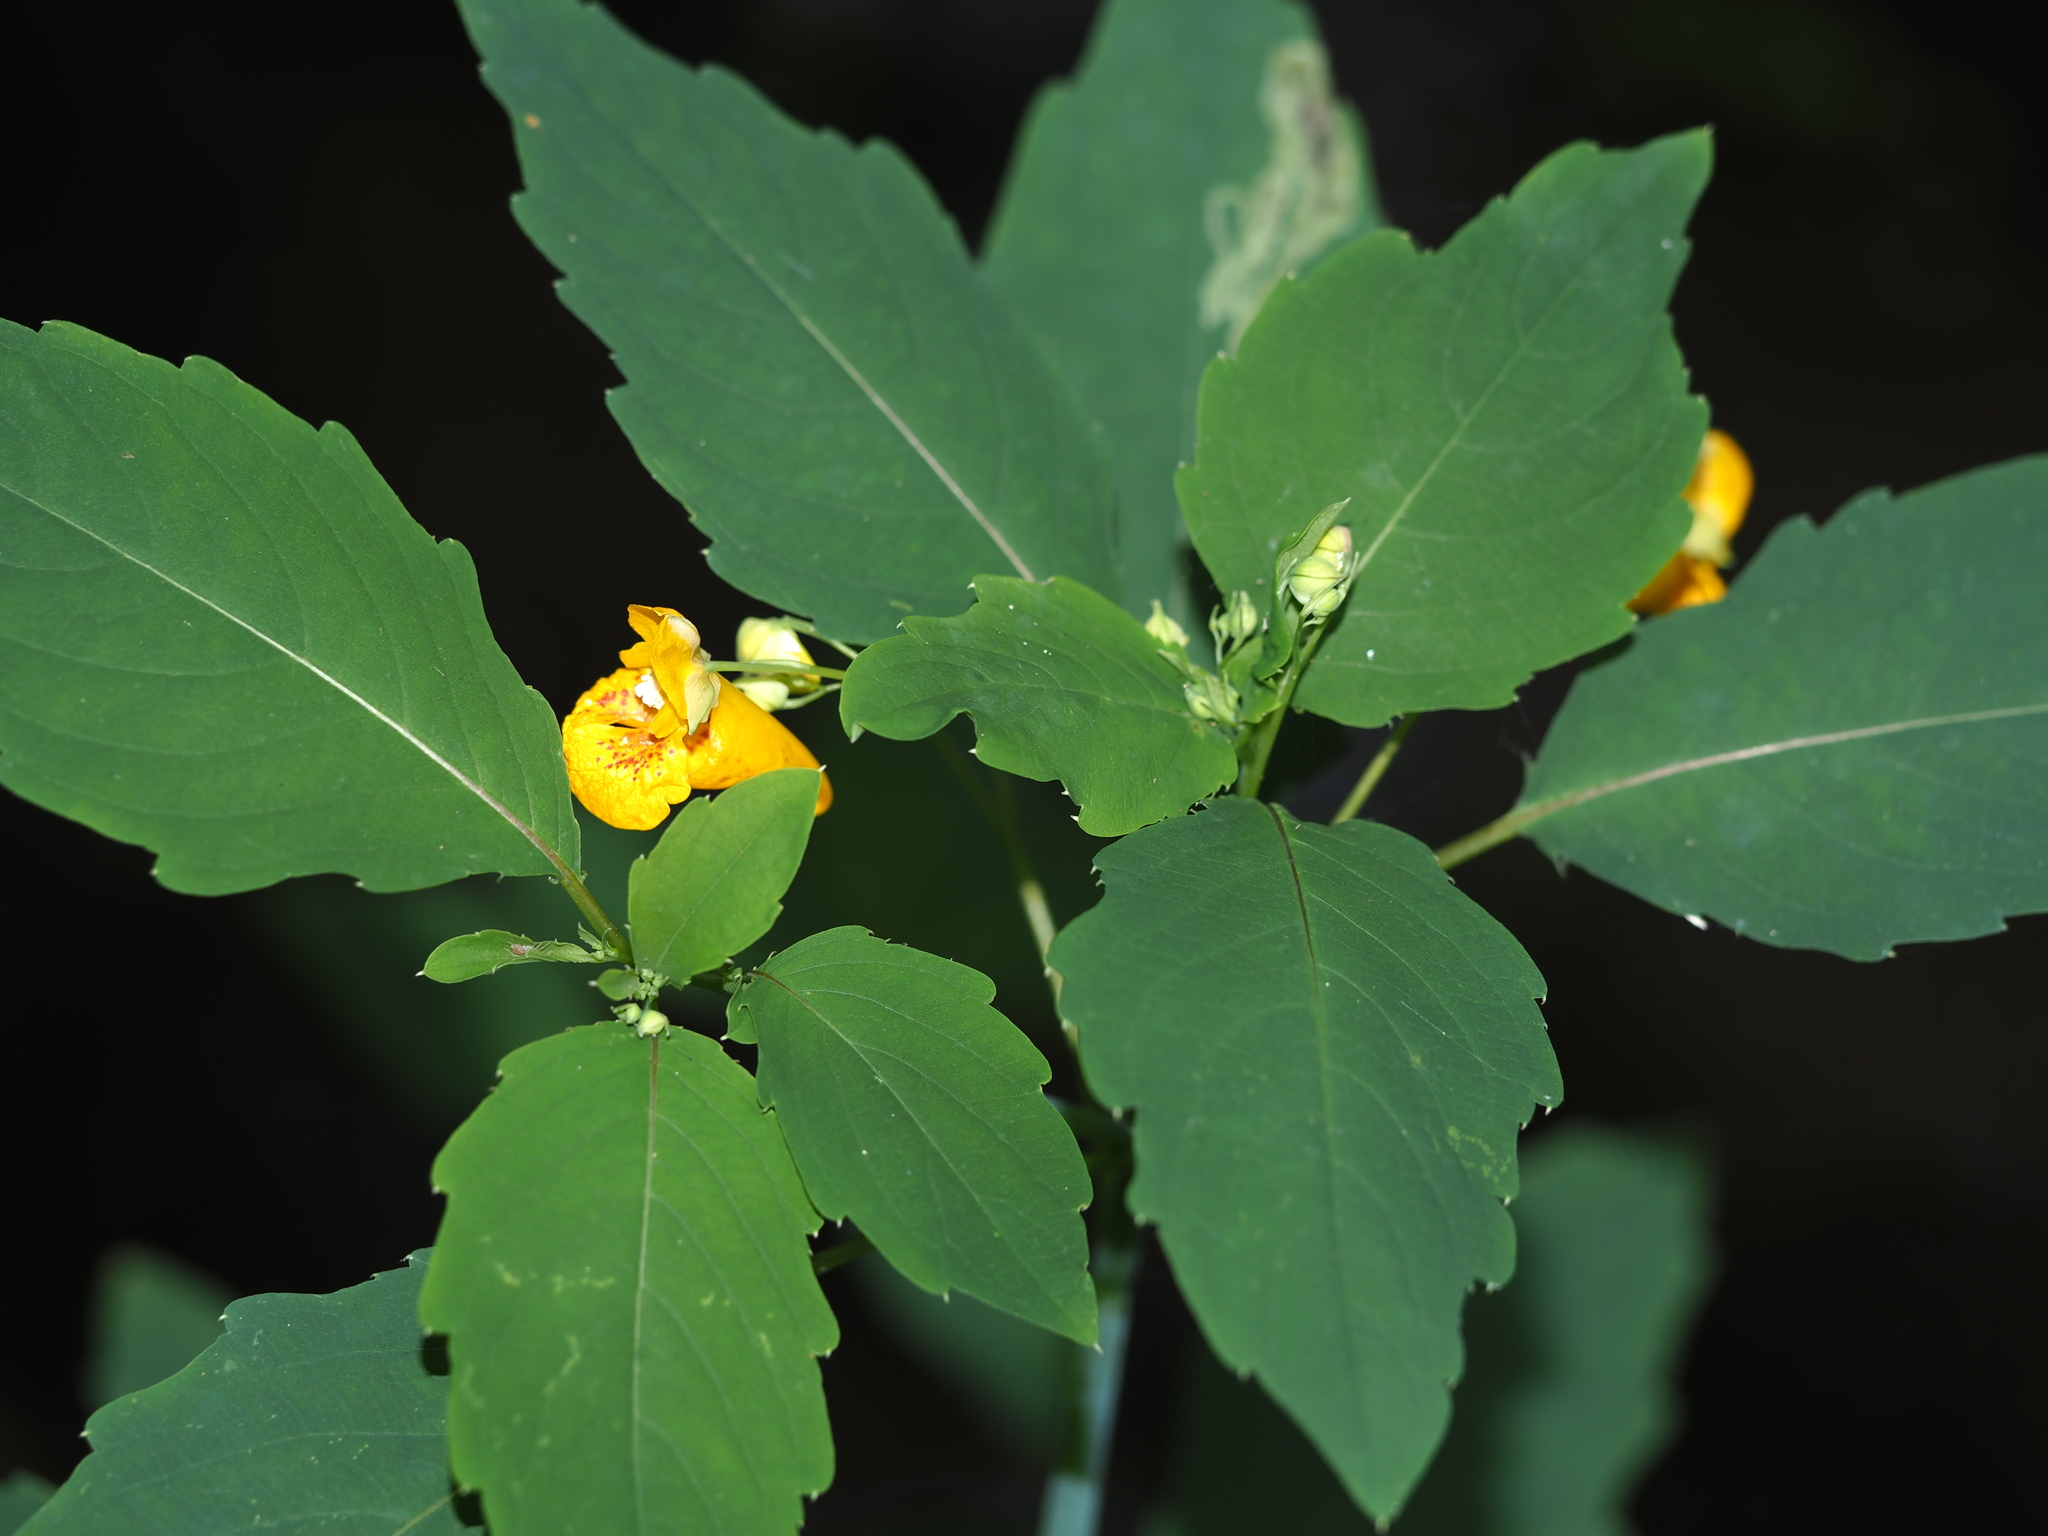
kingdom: Plantae
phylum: Tracheophyta
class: Magnoliopsida
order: Ericales
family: Balsaminaceae
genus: Impatiens
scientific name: Impatiens capensis
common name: Orange balsam
